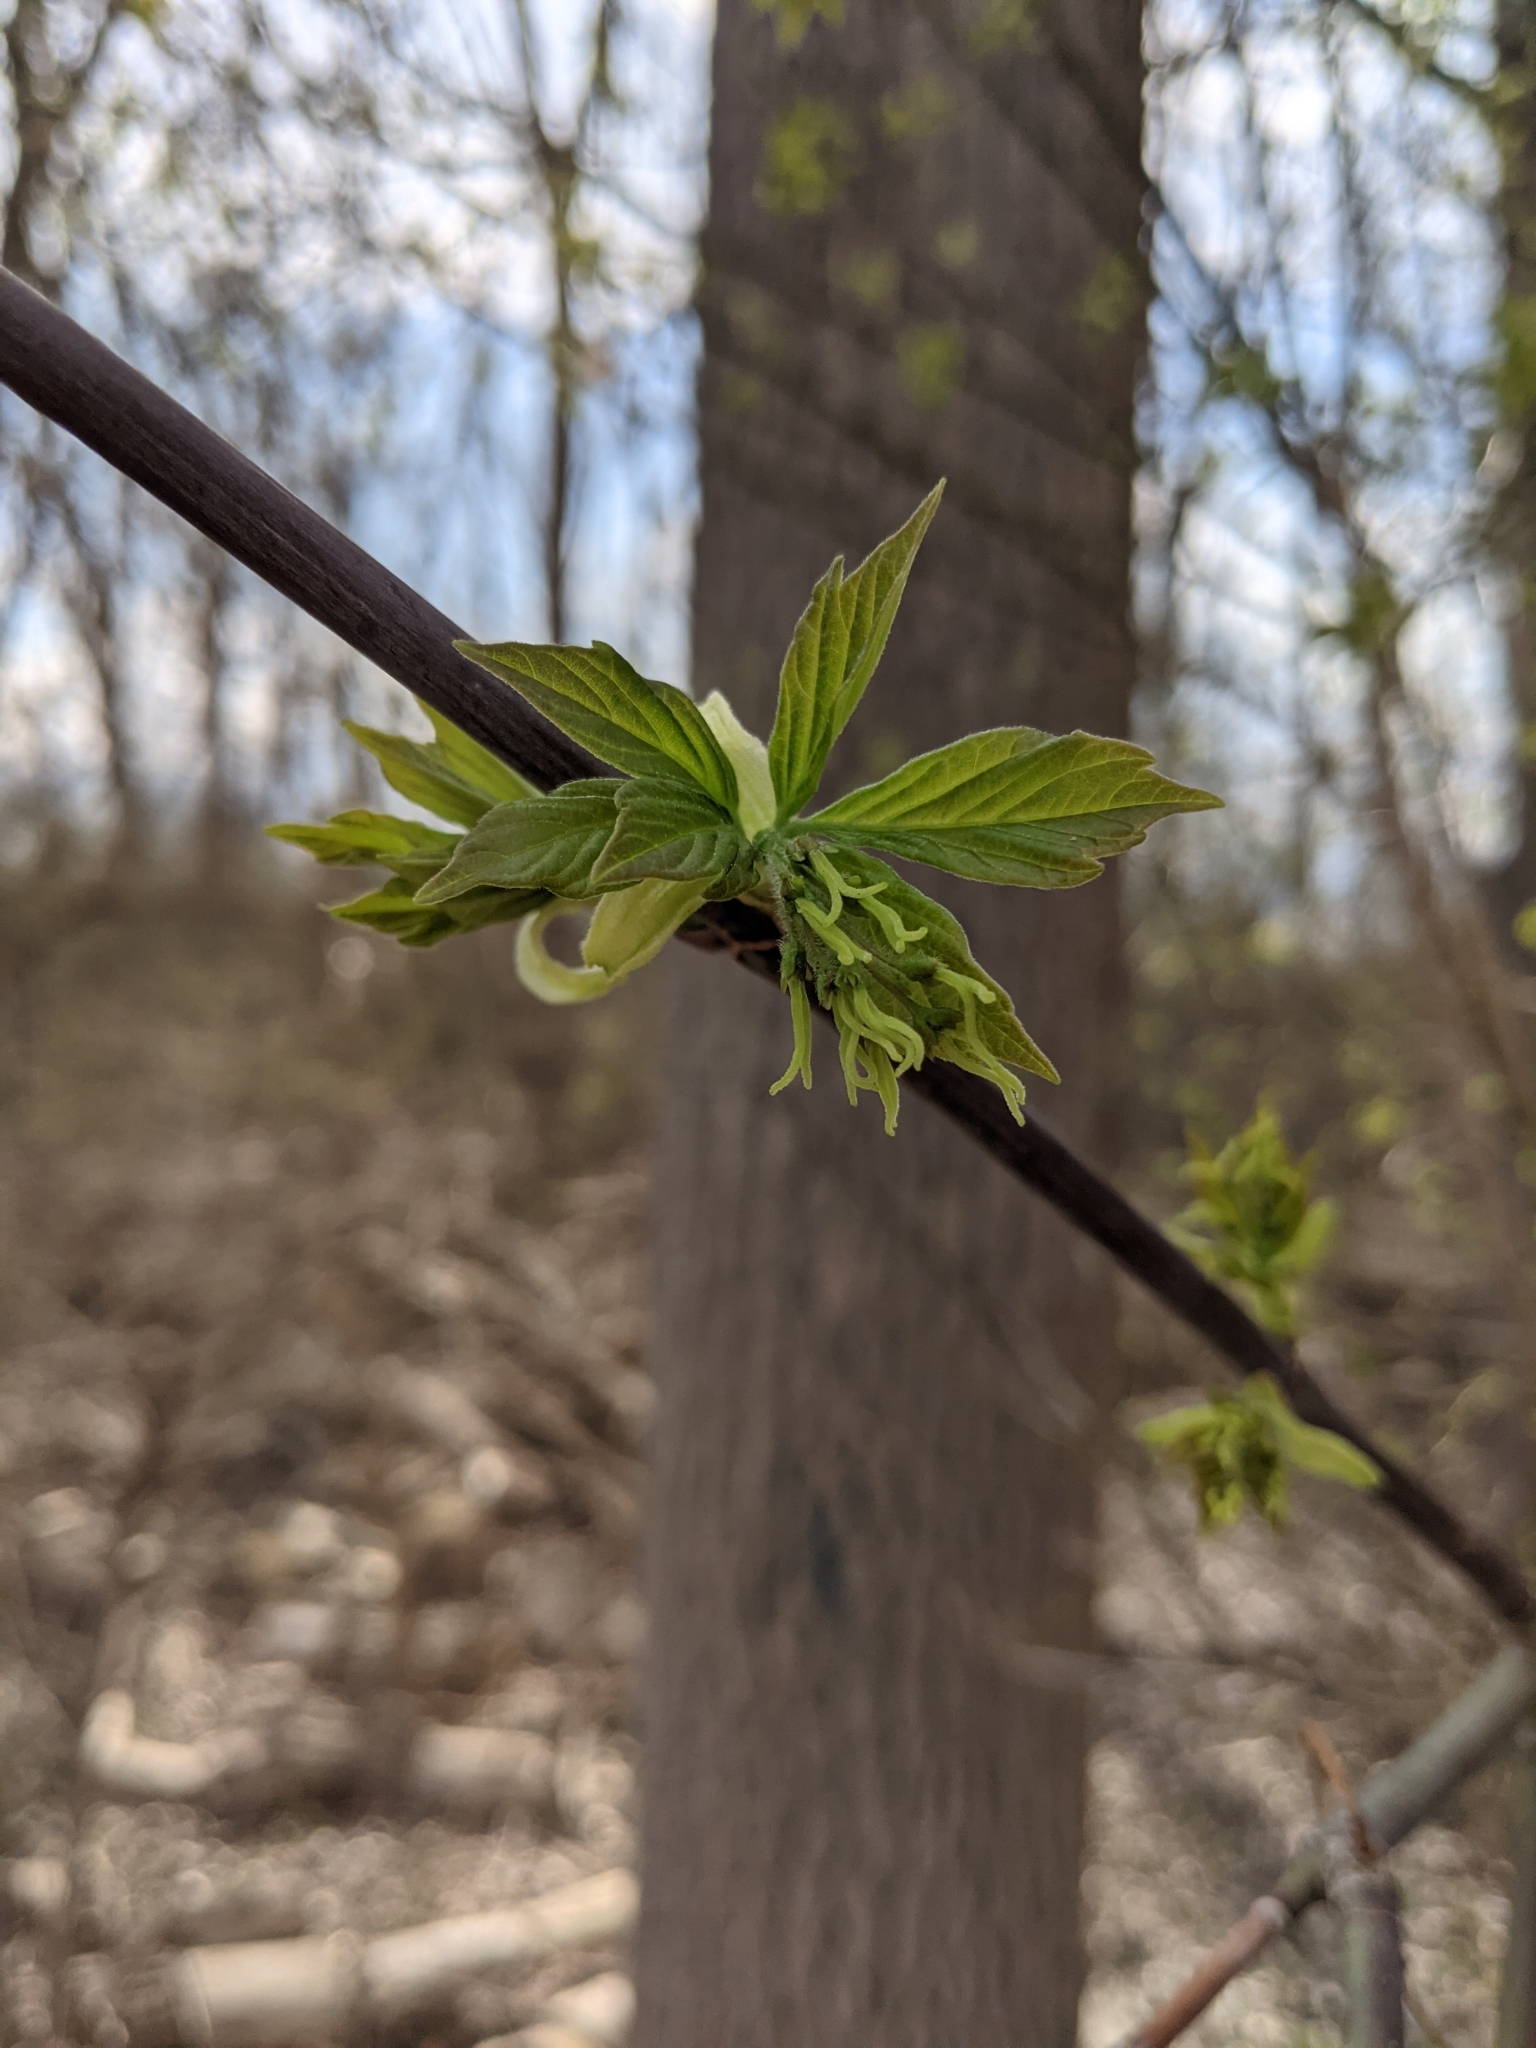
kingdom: Plantae
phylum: Tracheophyta
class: Magnoliopsida
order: Sapindales
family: Sapindaceae
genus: Acer
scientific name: Acer negundo
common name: Ashleaf maple
